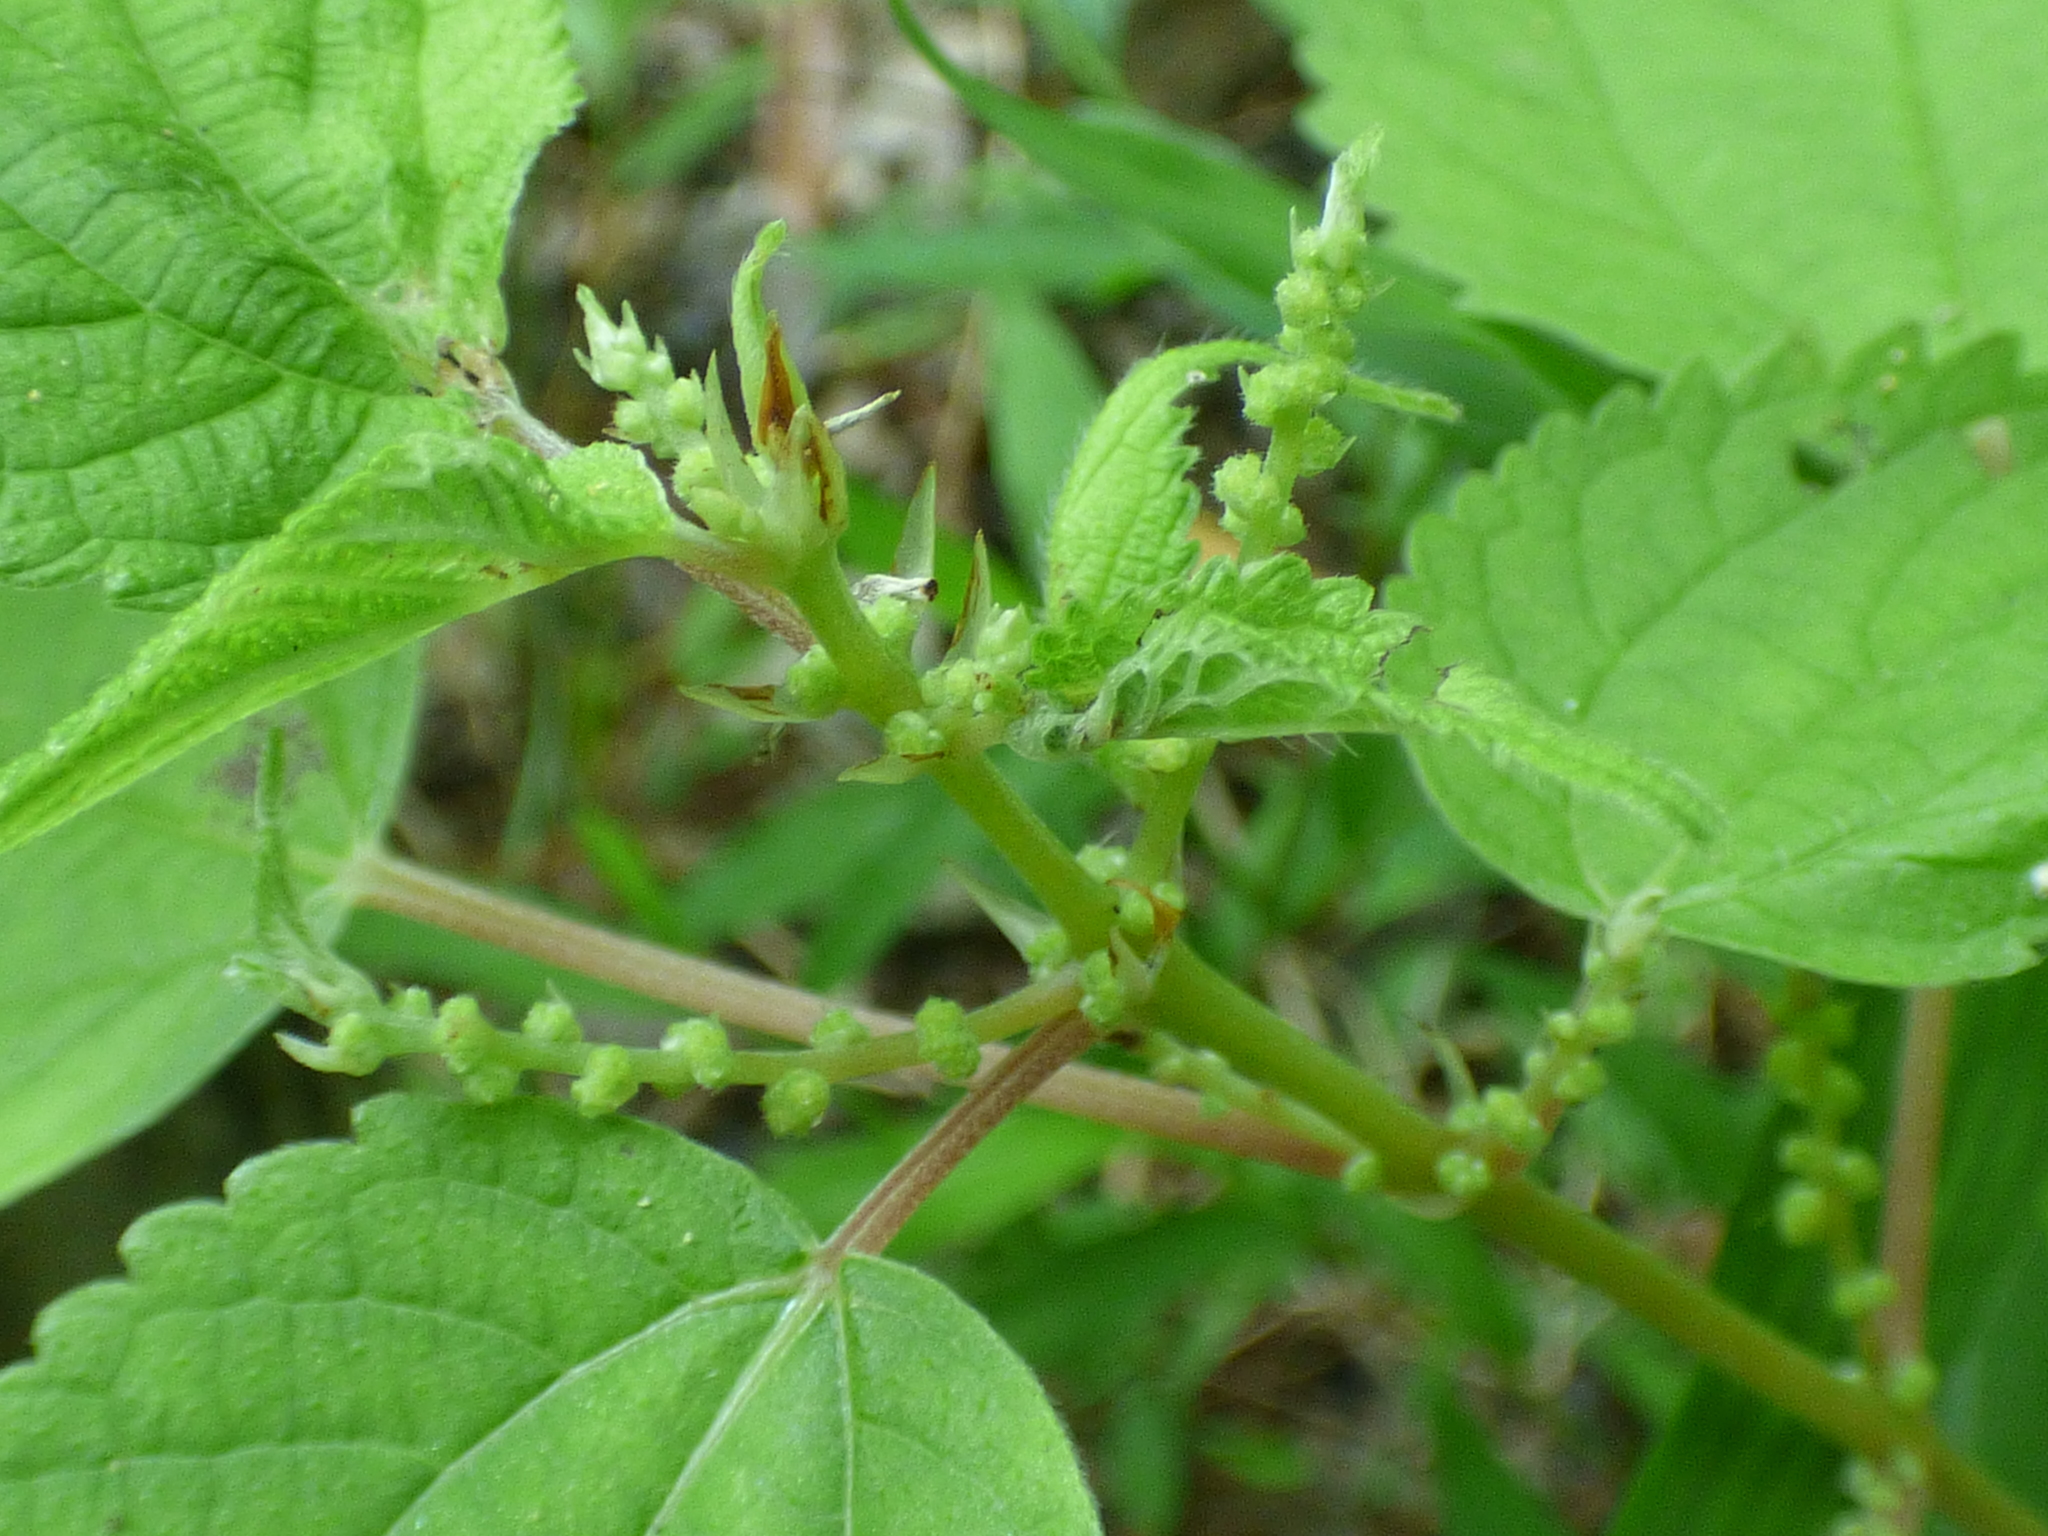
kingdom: Plantae
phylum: Tracheophyta
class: Magnoliopsida
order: Rosales
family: Urticaceae
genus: Boehmeria
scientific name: Boehmeria cylindrica
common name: Bog-hemp
